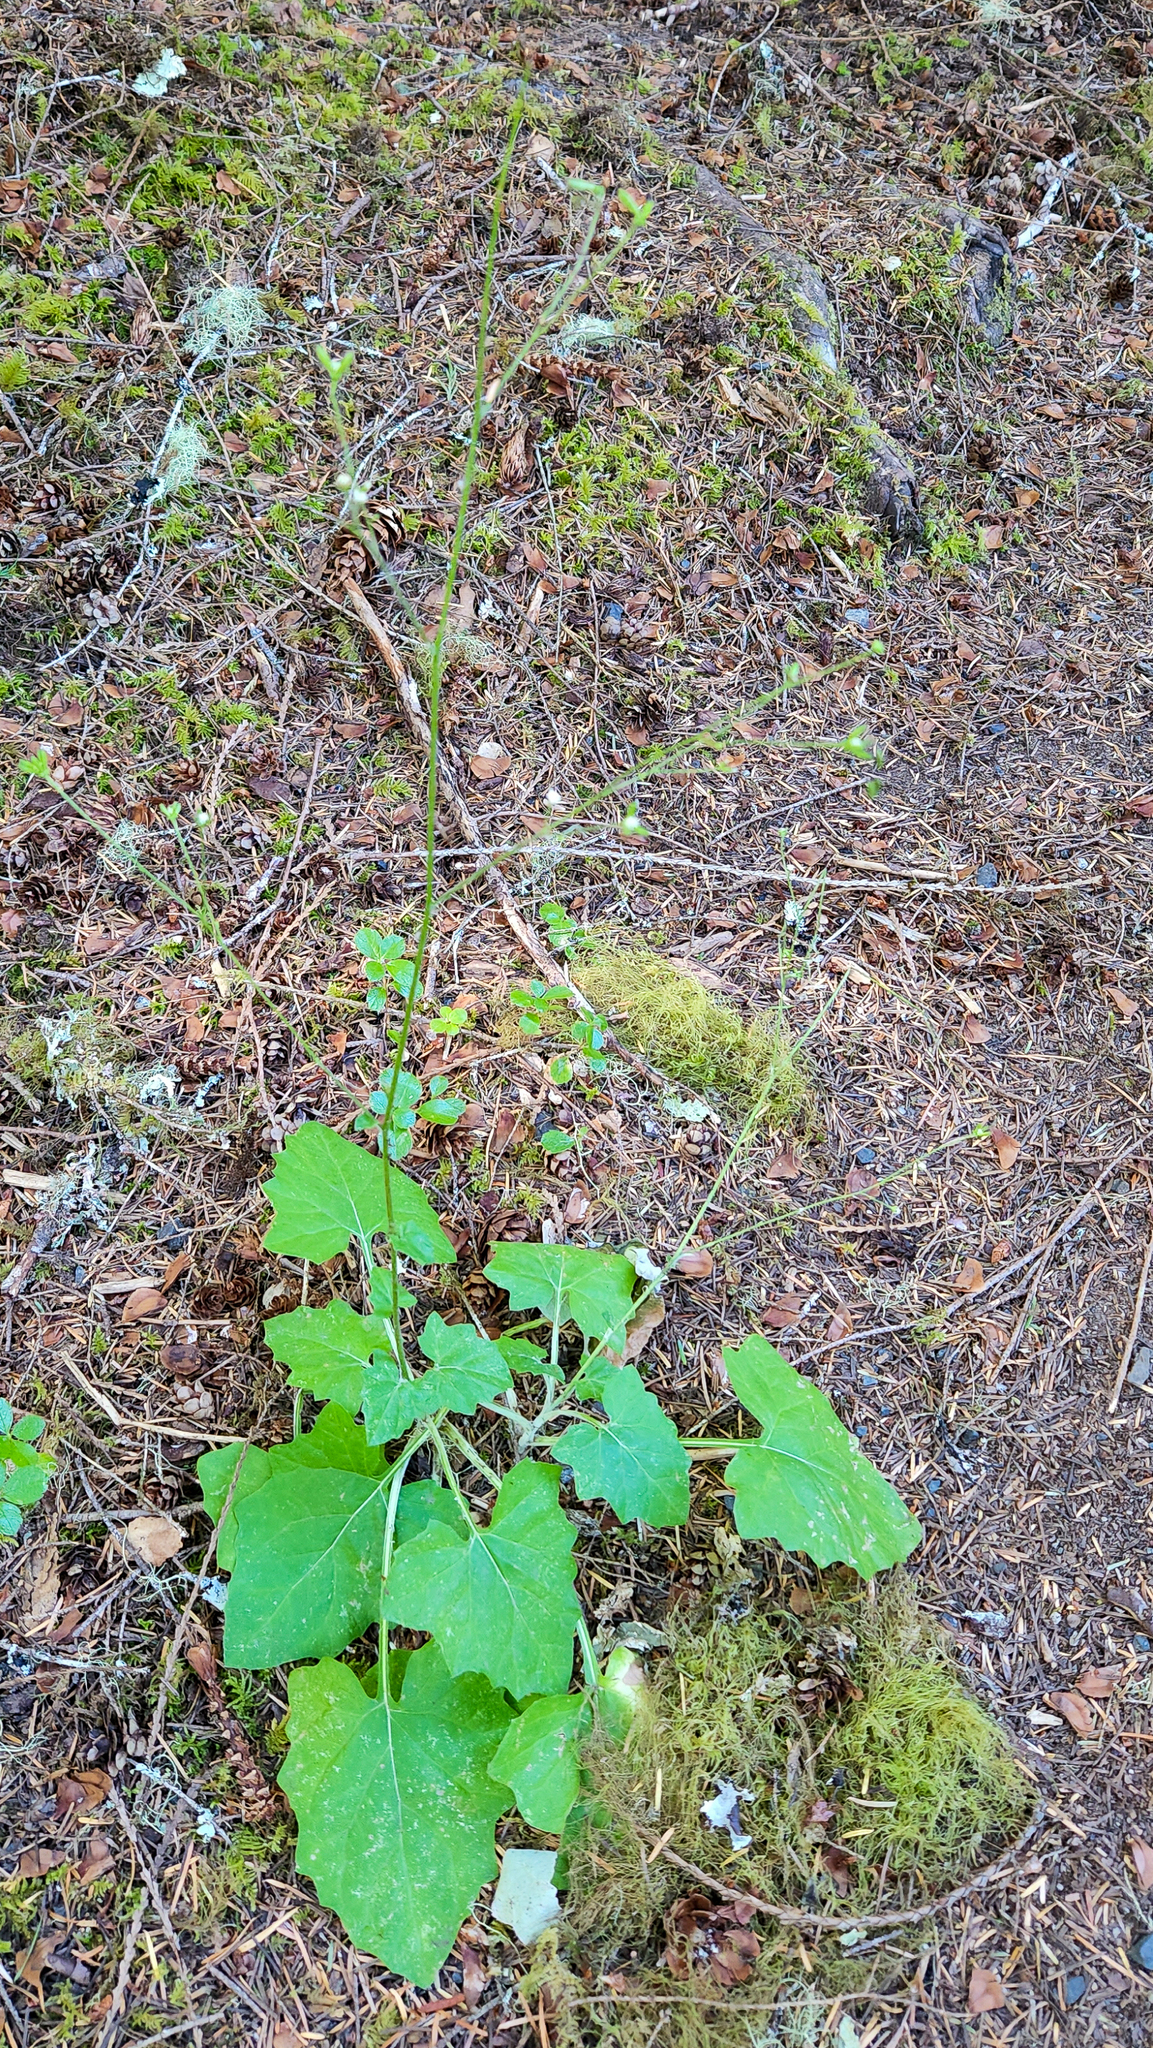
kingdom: Plantae
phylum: Tracheophyta
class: Magnoliopsida
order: Asterales
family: Asteraceae
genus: Adenocaulon
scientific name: Adenocaulon bicolor
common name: Trailplant
